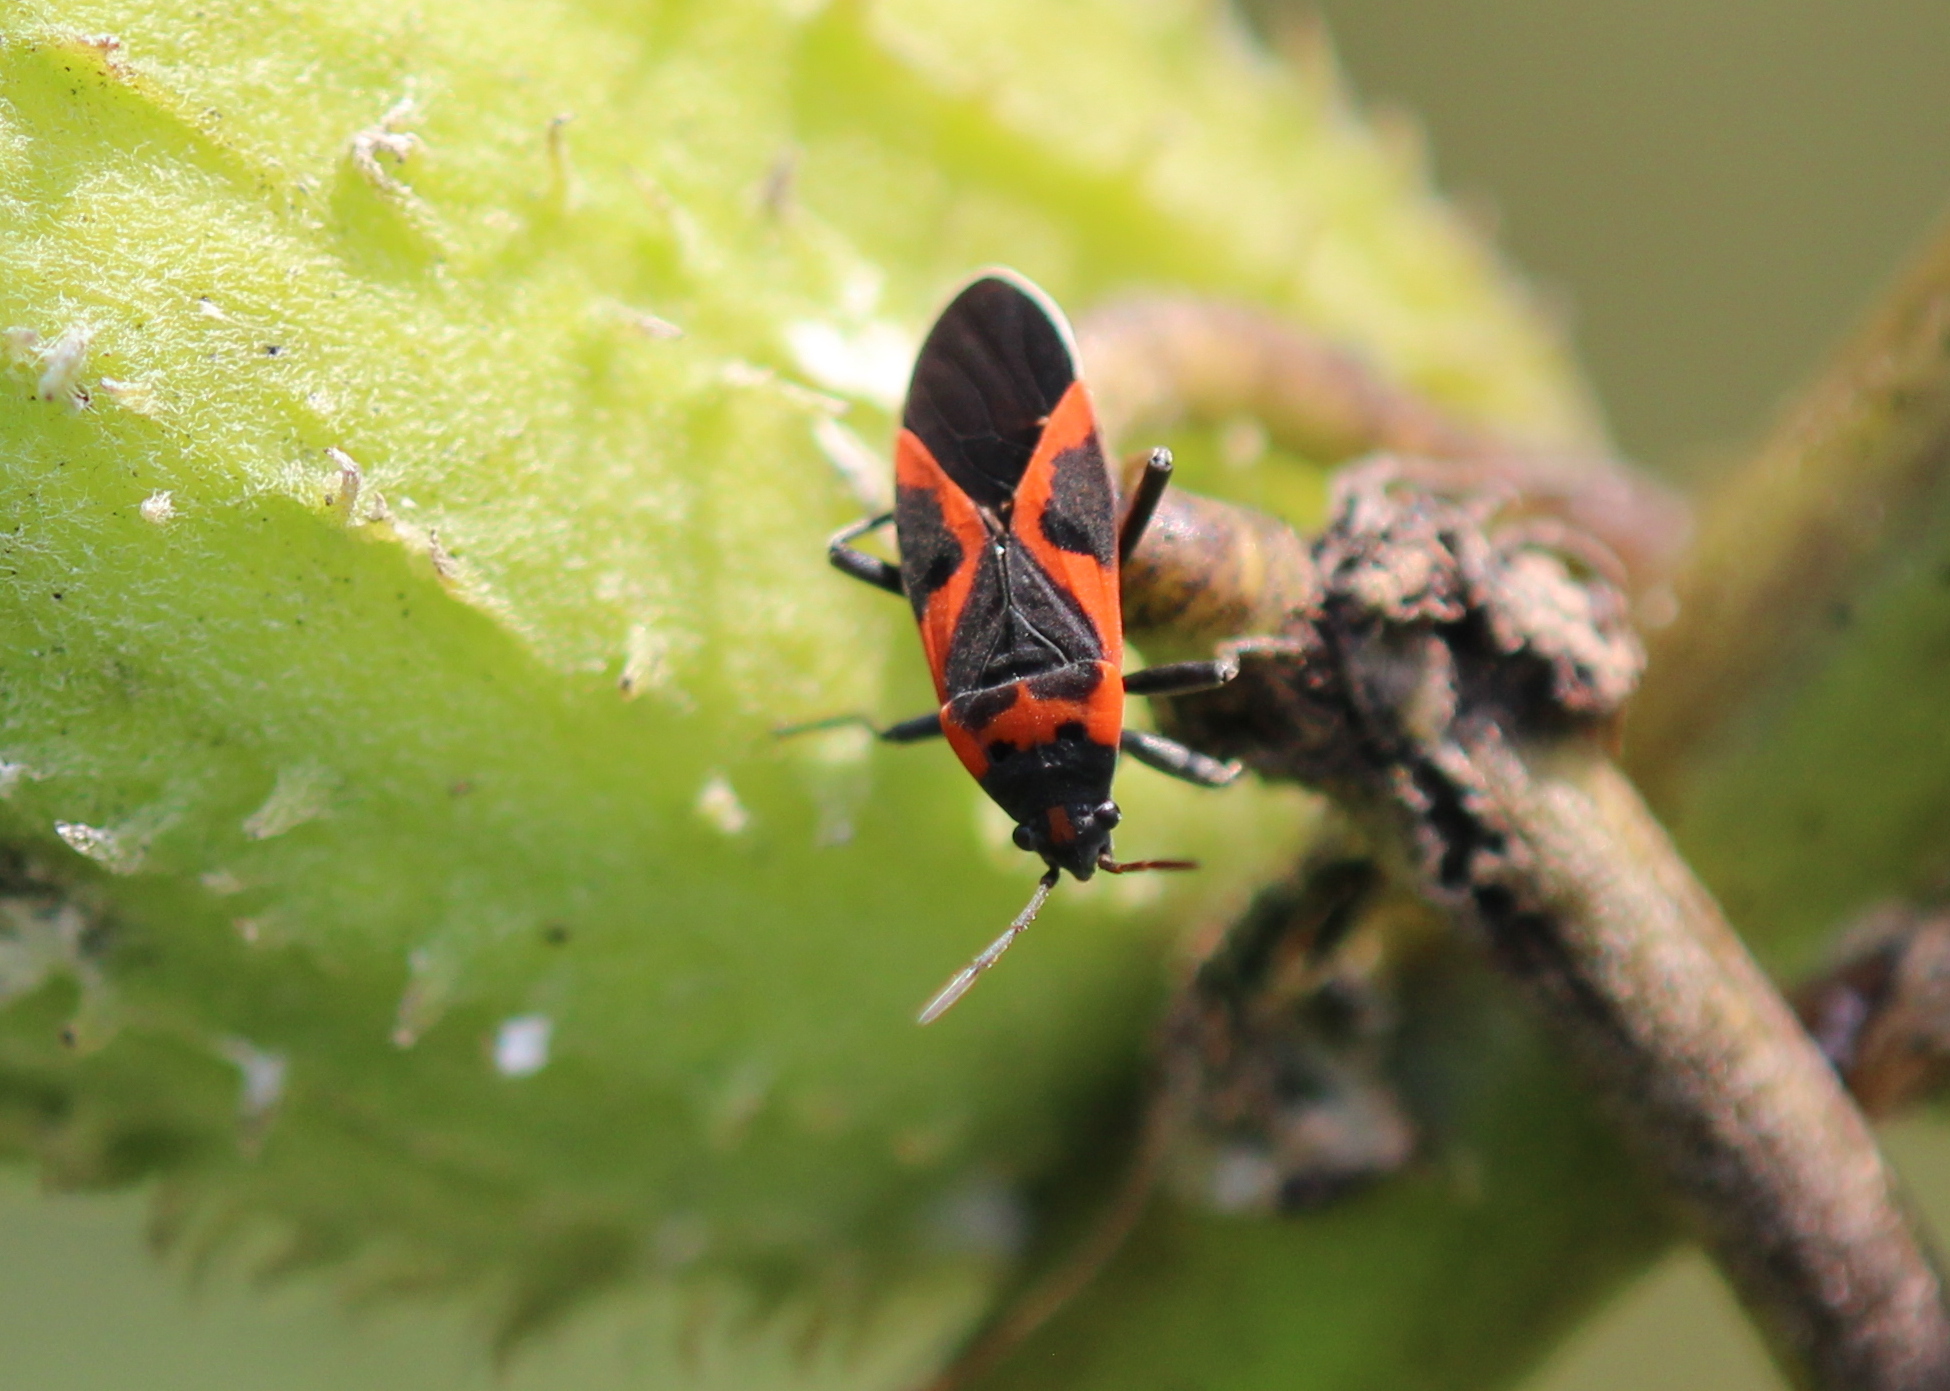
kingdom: Animalia
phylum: Arthropoda
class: Insecta
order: Hemiptera
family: Lygaeidae
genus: Lygaeus
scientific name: Lygaeus kalmii
